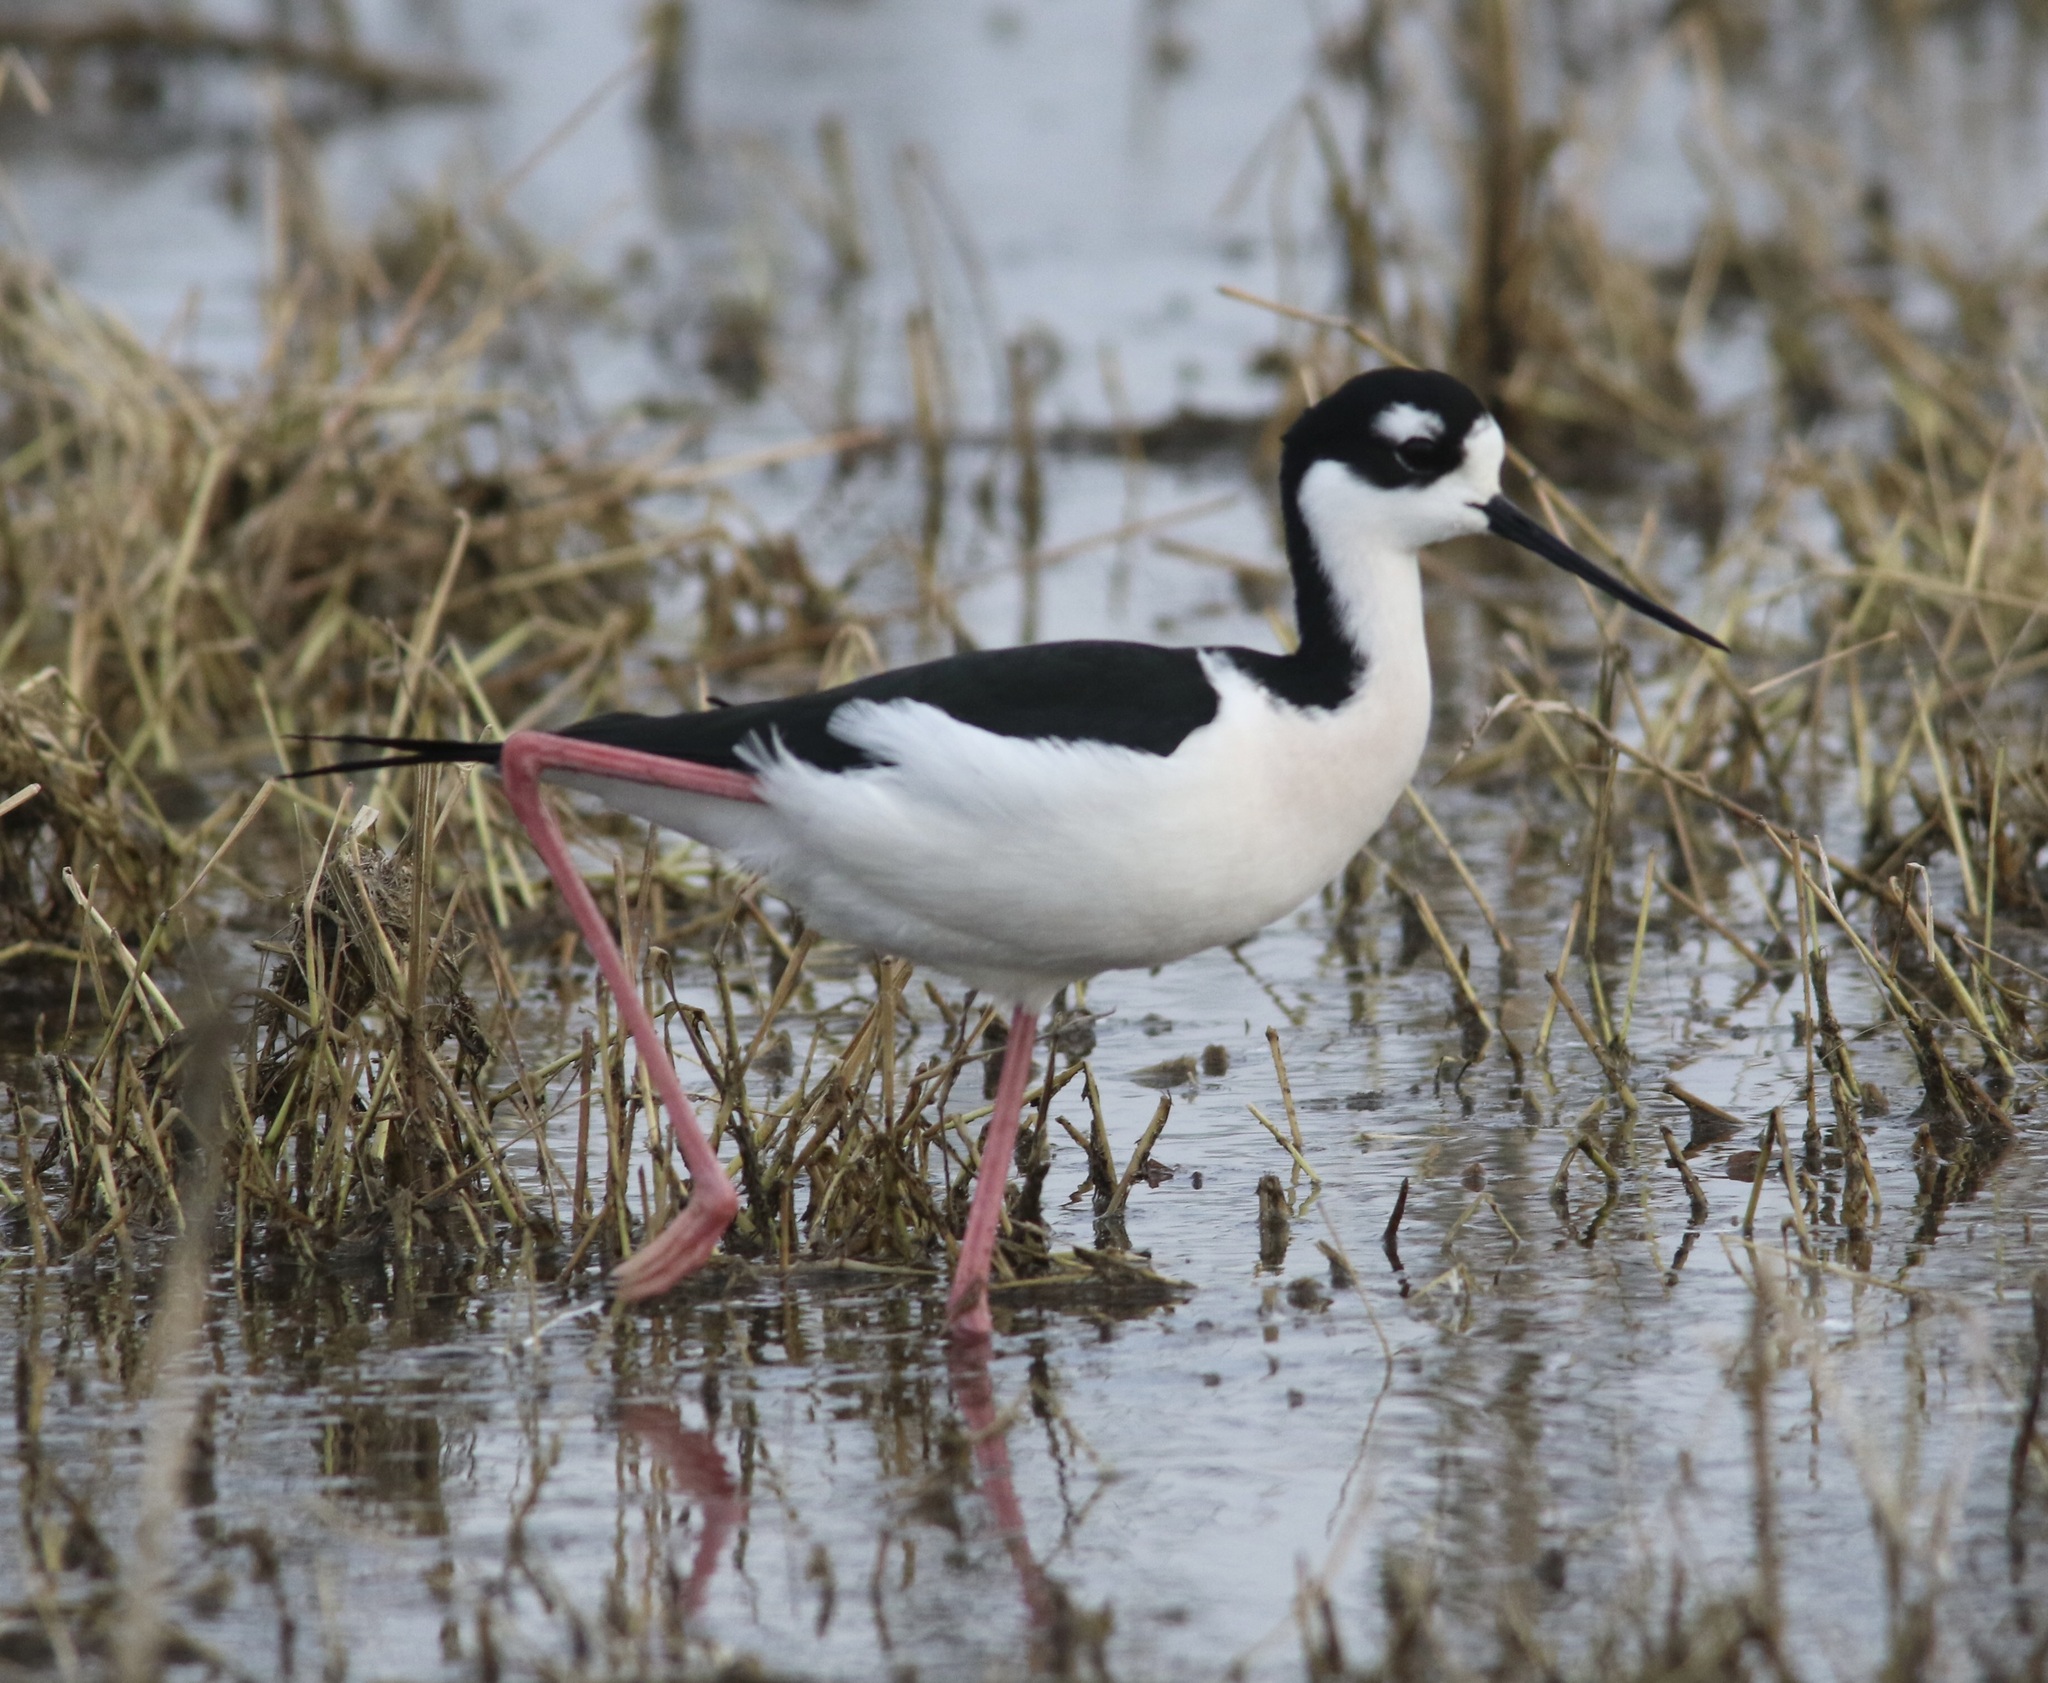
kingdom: Animalia
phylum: Chordata
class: Aves
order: Charadriiformes
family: Recurvirostridae
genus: Himantopus
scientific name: Himantopus mexicanus
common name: Black-necked stilt
